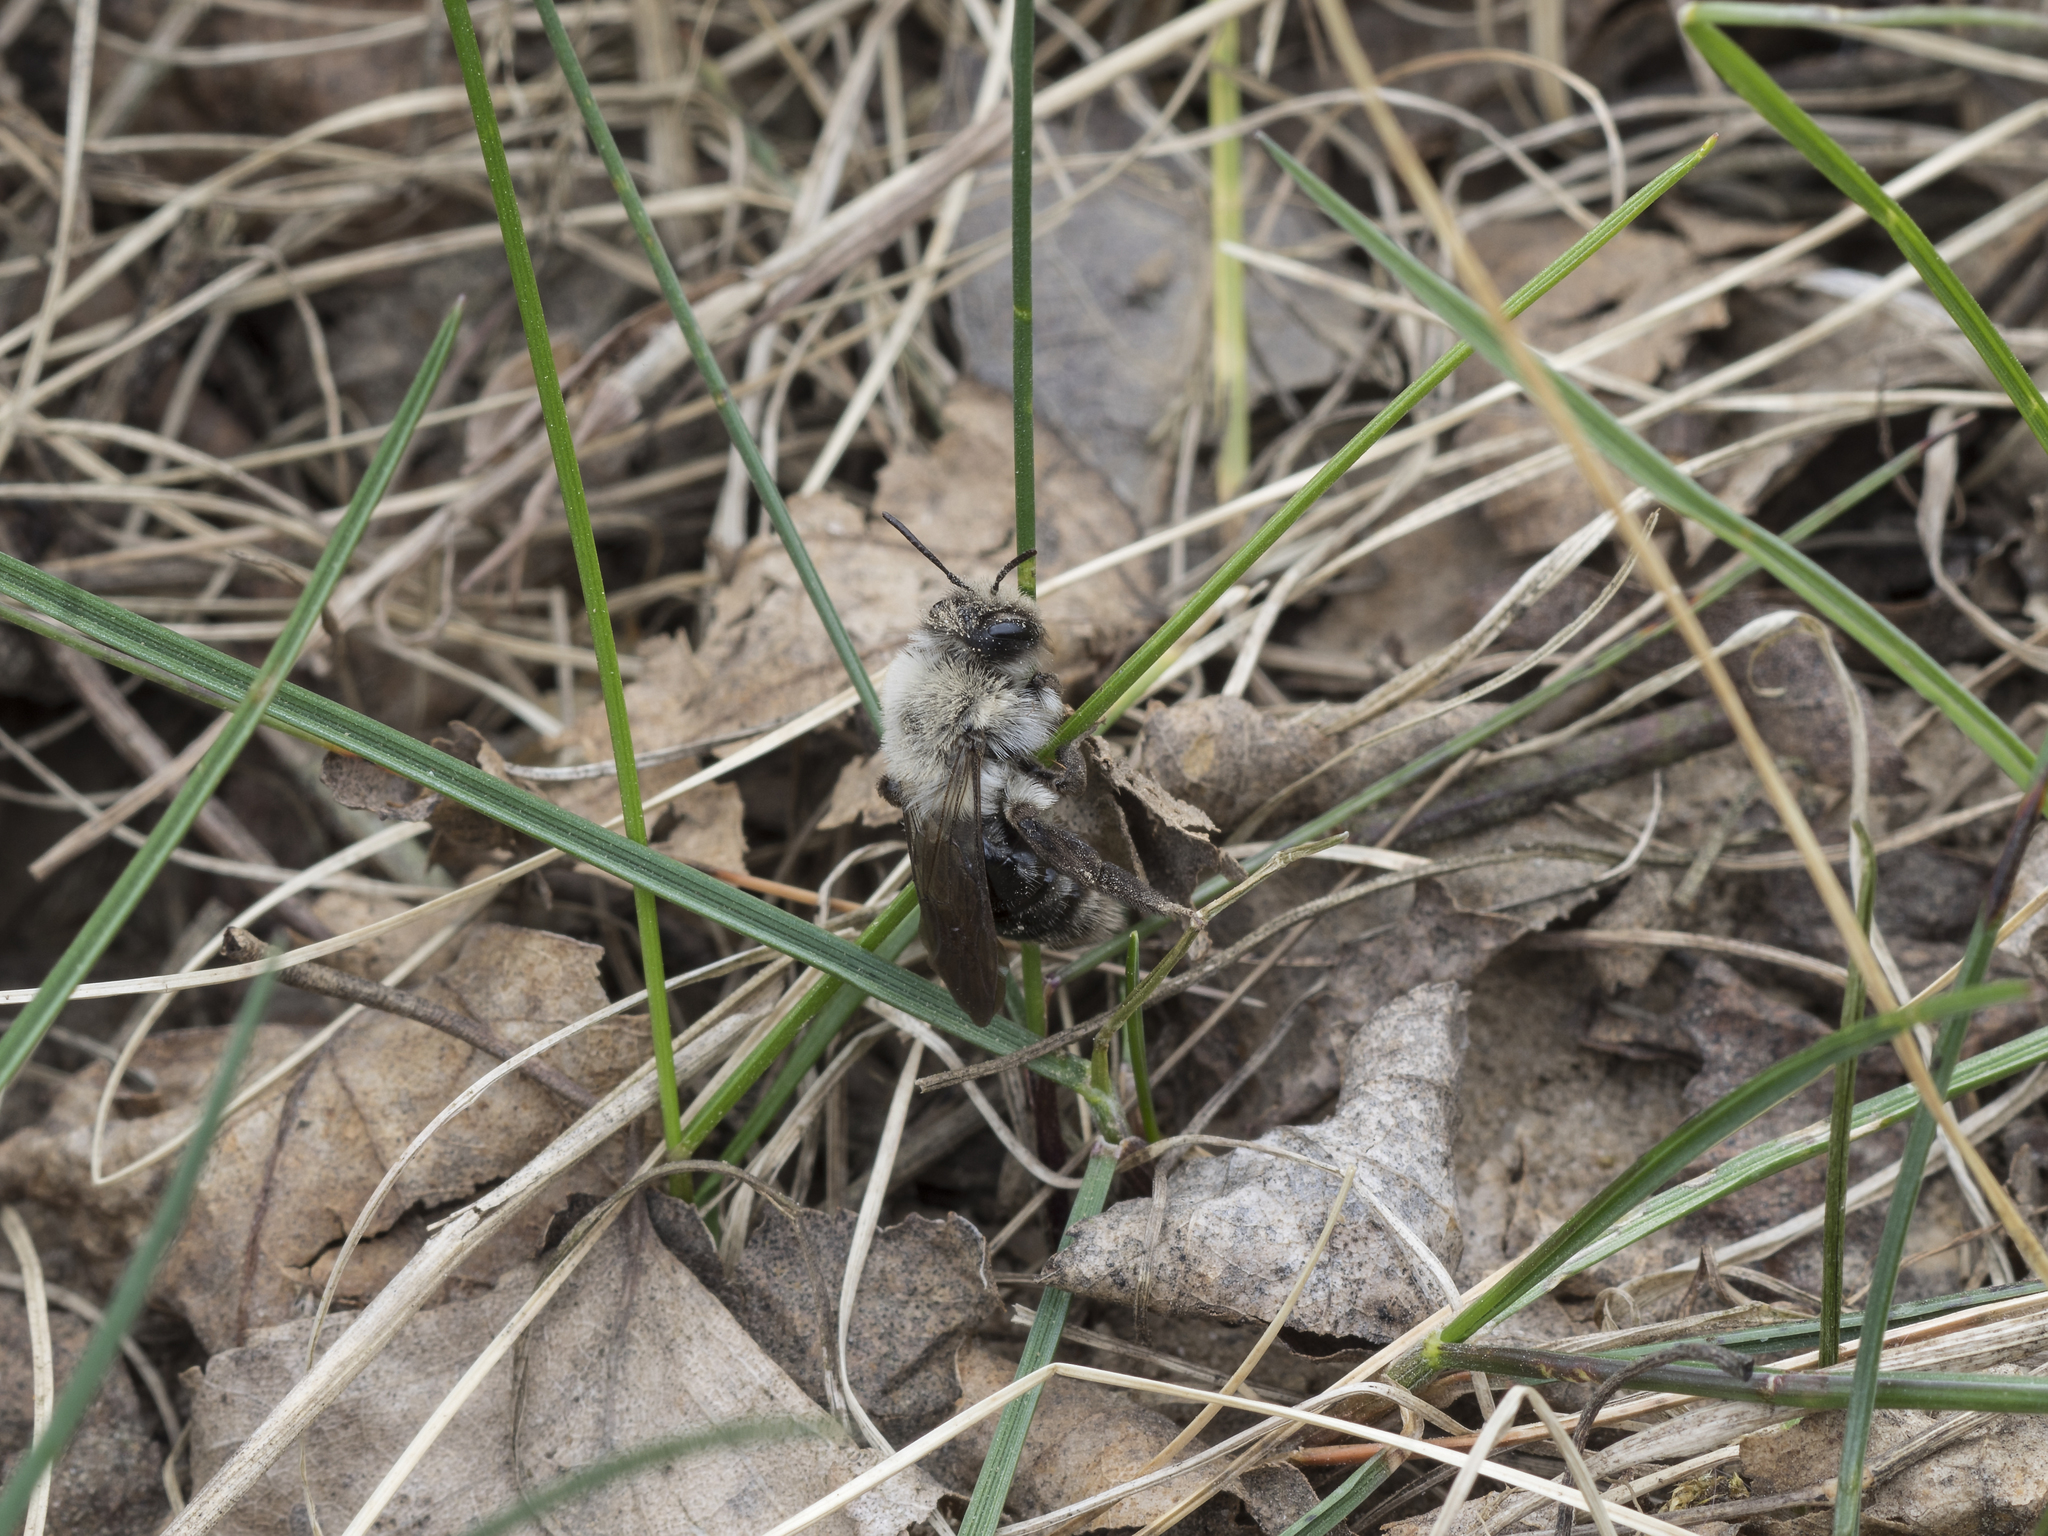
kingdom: Animalia
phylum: Arthropoda
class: Insecta
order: Hymenoptera
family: Andrenidae
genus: Andrena
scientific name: Andrena vaga
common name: Grey-backed mining bee
